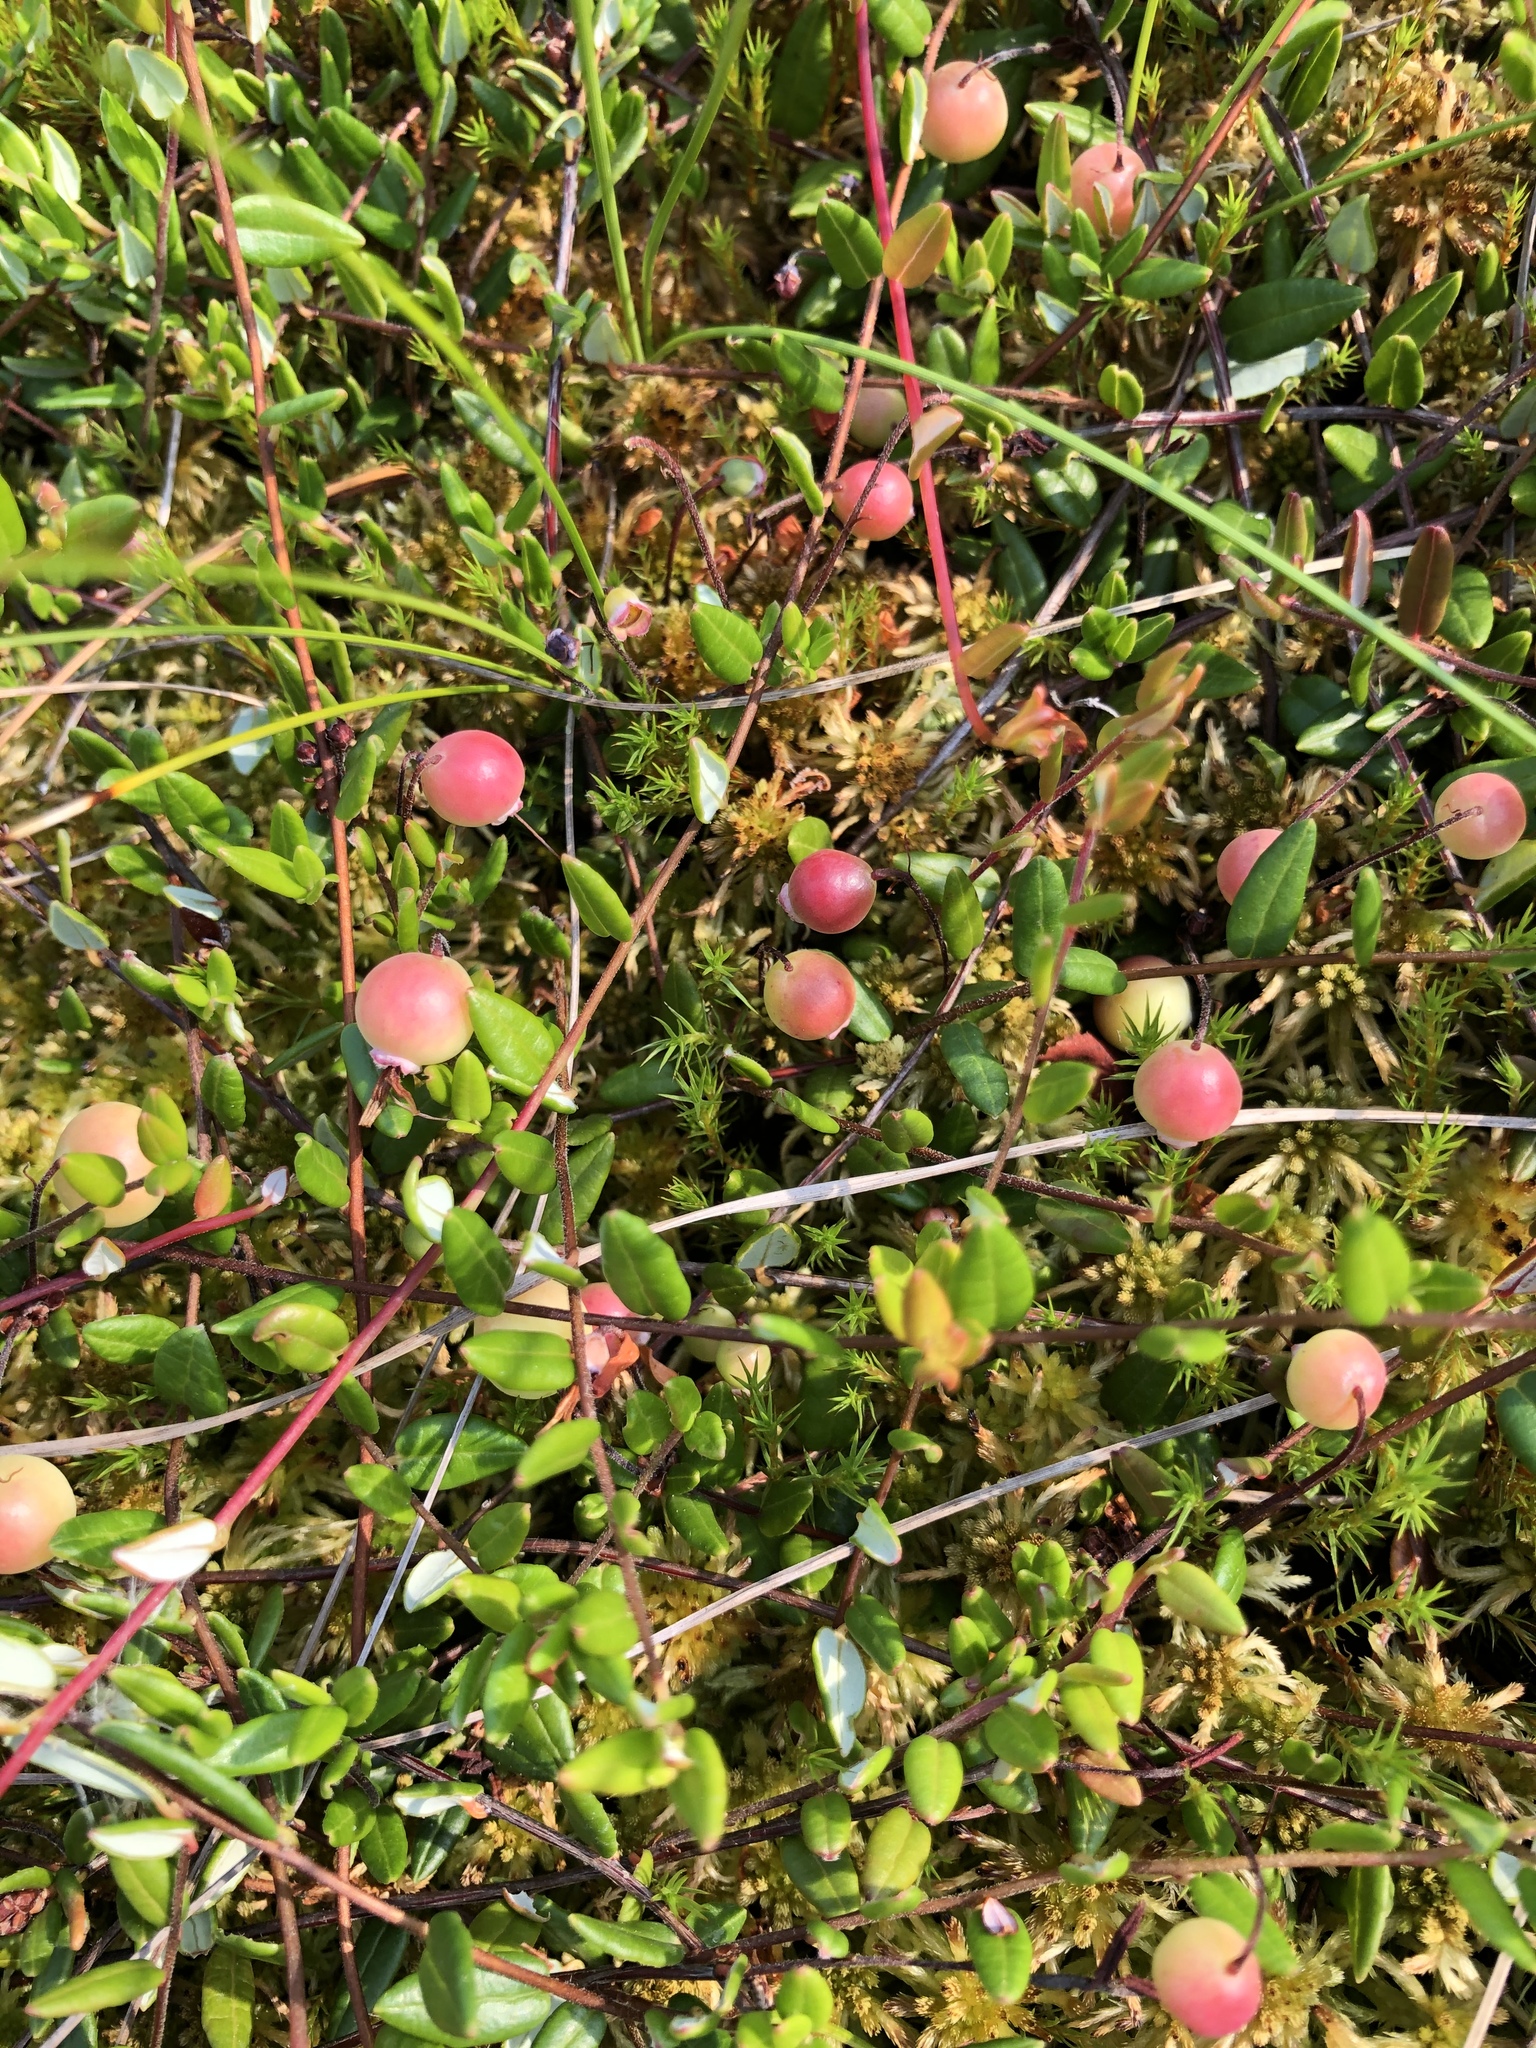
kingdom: Plantae
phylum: Tracheophyta
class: Magnoliopsida
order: Ericales
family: Ericaceae
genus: Vaccinium
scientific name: Vaccinium oxycoccos
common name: Cranberry
